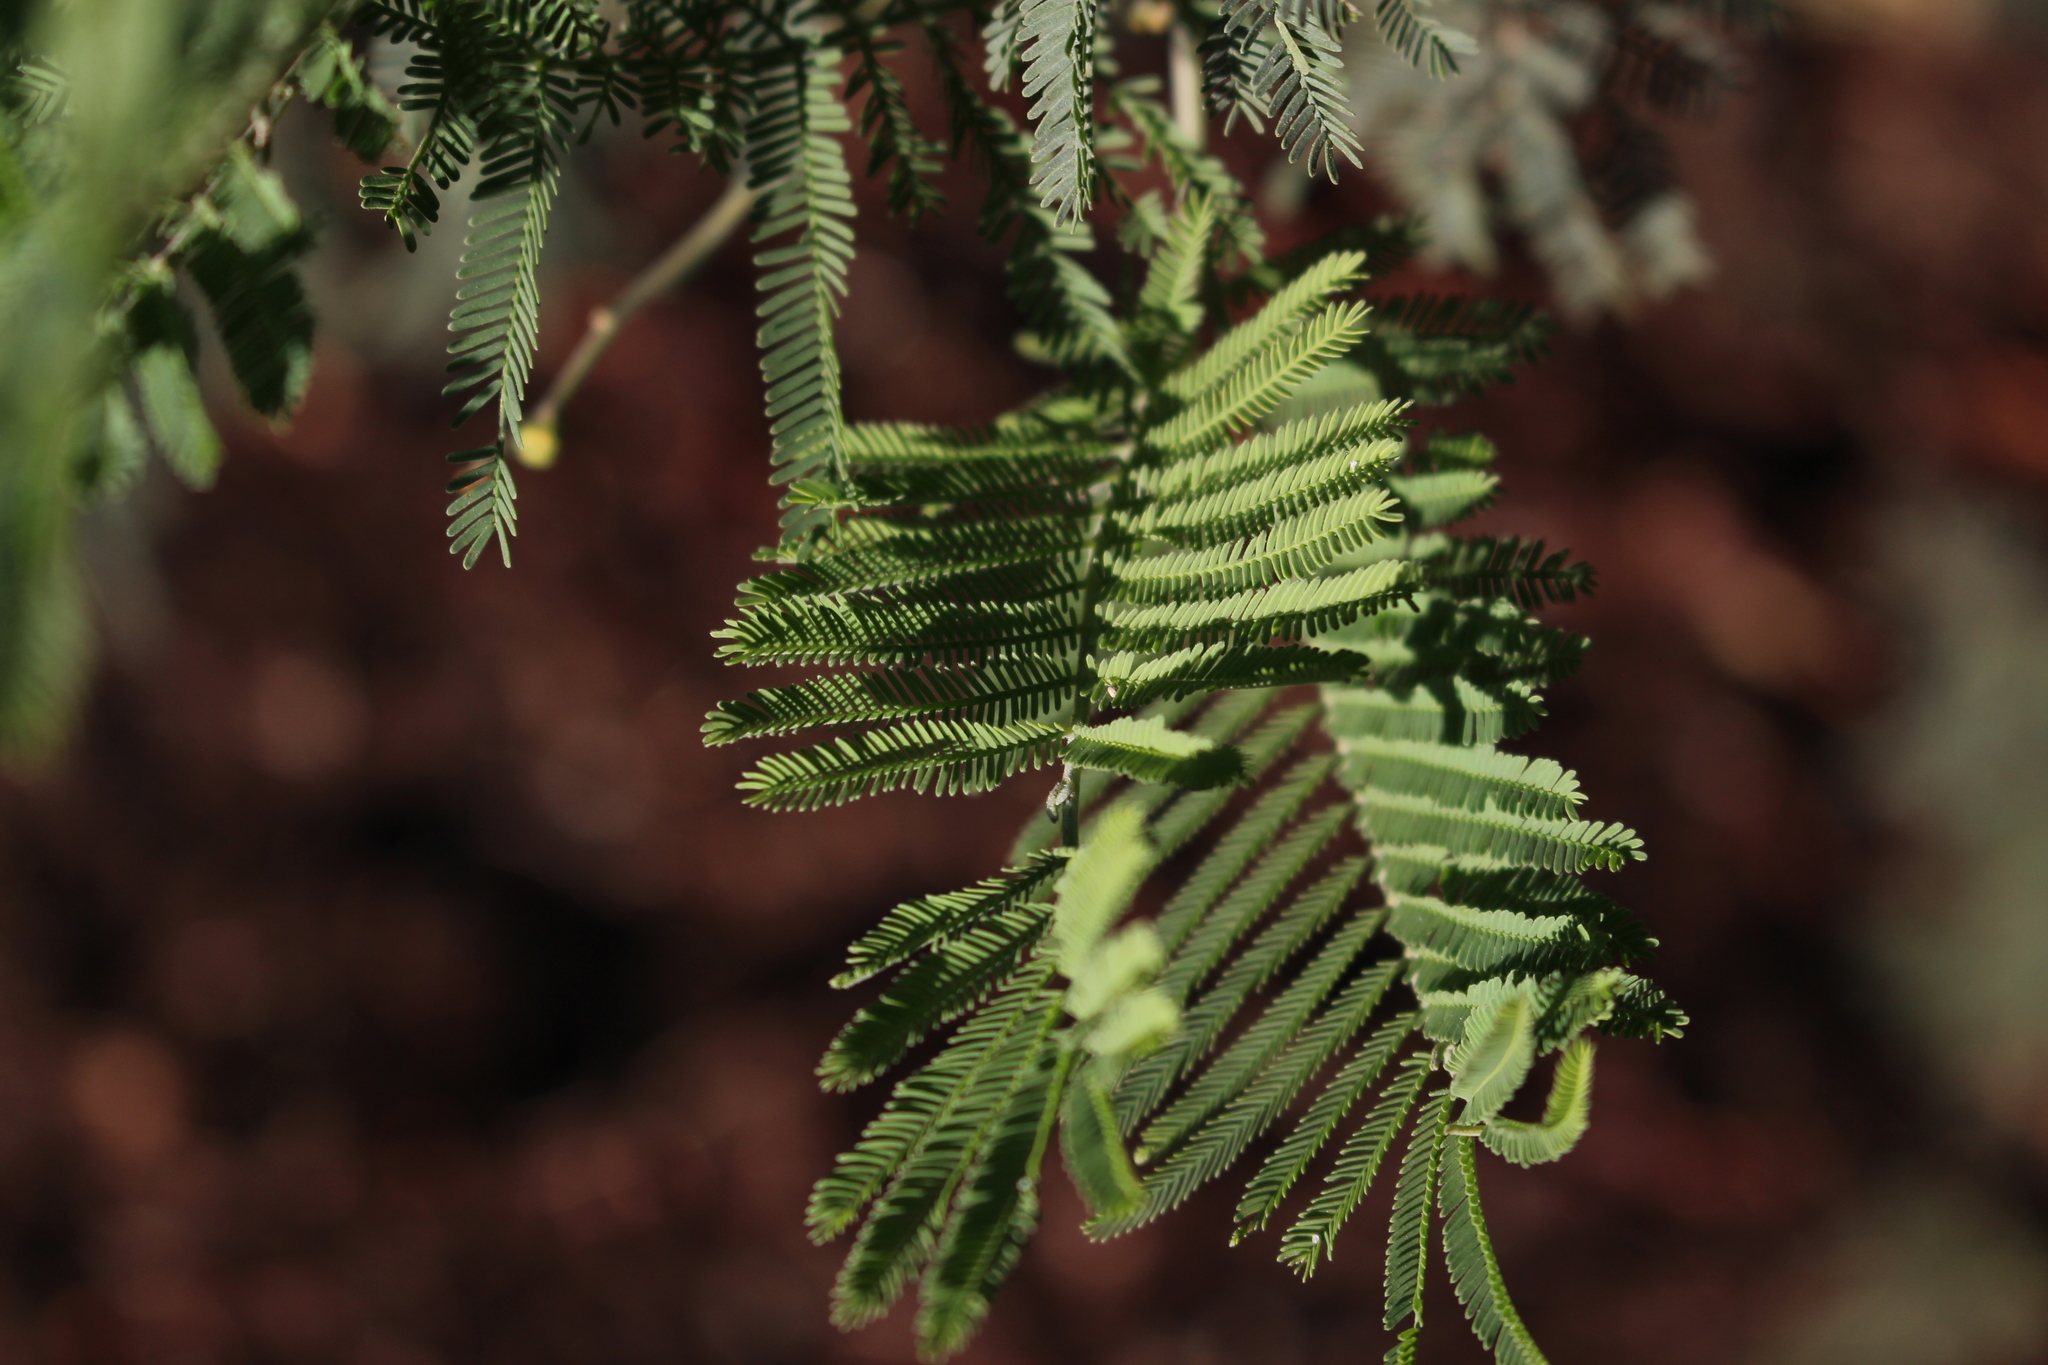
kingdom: Plantae
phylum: Tracheophyta
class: Magnoliopsida
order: Fabales
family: Fabaceae
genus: Acacia
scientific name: Acacia dealbata
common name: Silver wattle
